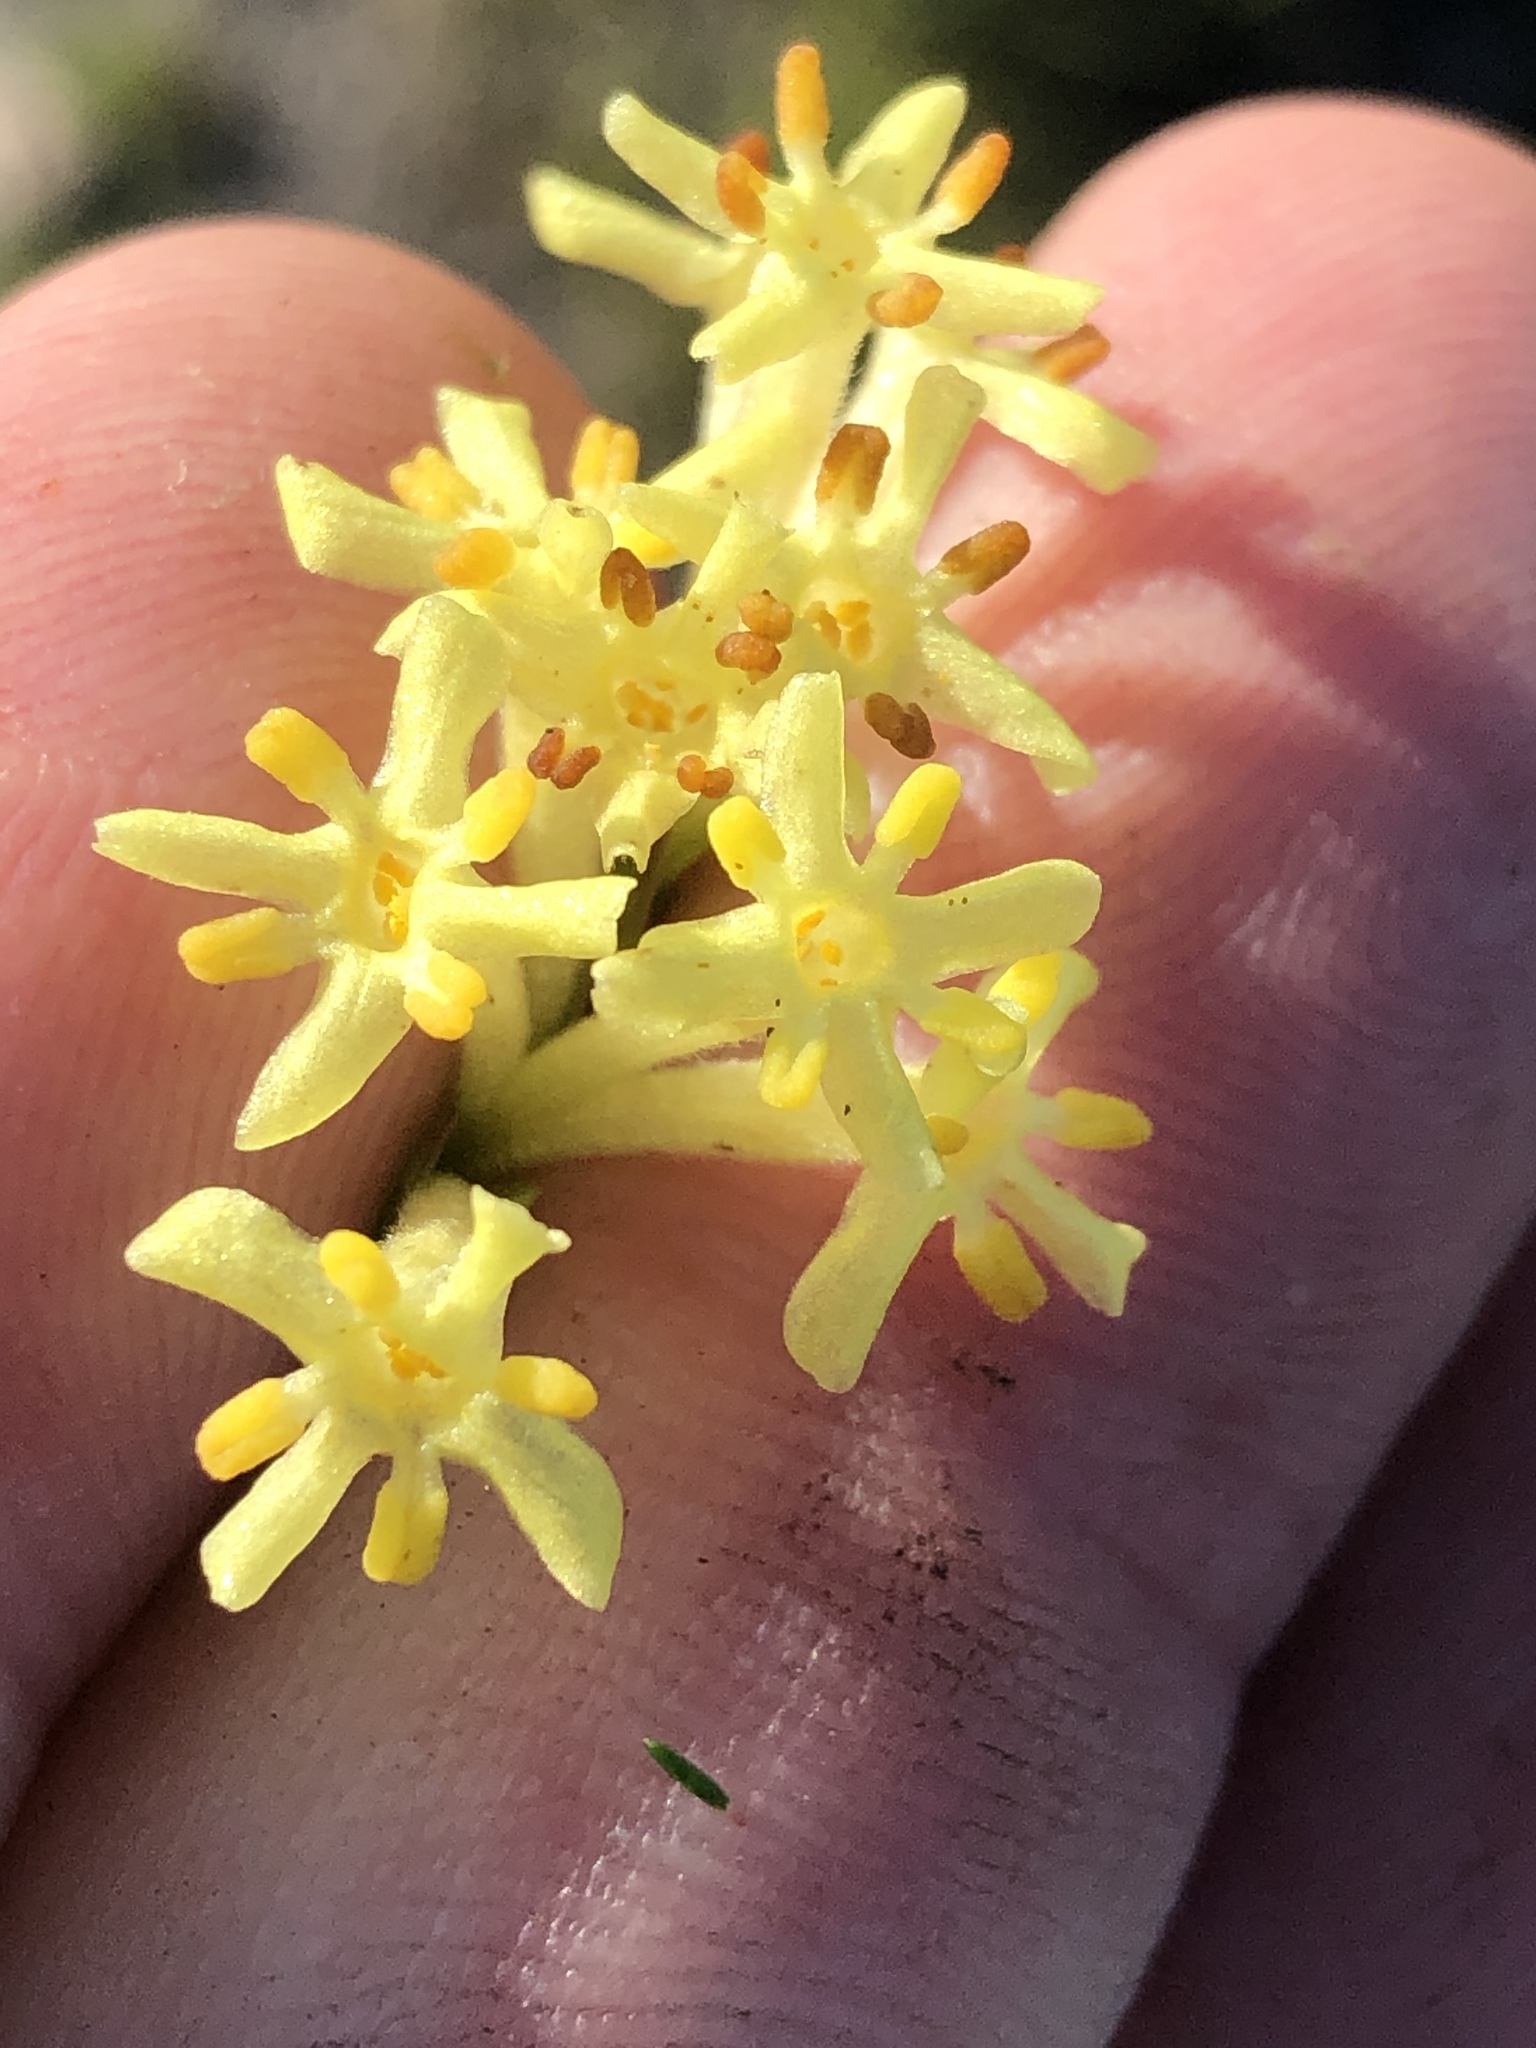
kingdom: Plantae
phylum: Tracheophyta
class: Magnoliopsida
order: Malvales
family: Thymelaeaceae
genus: Gnidia
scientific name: Gnidia oppositifolia
